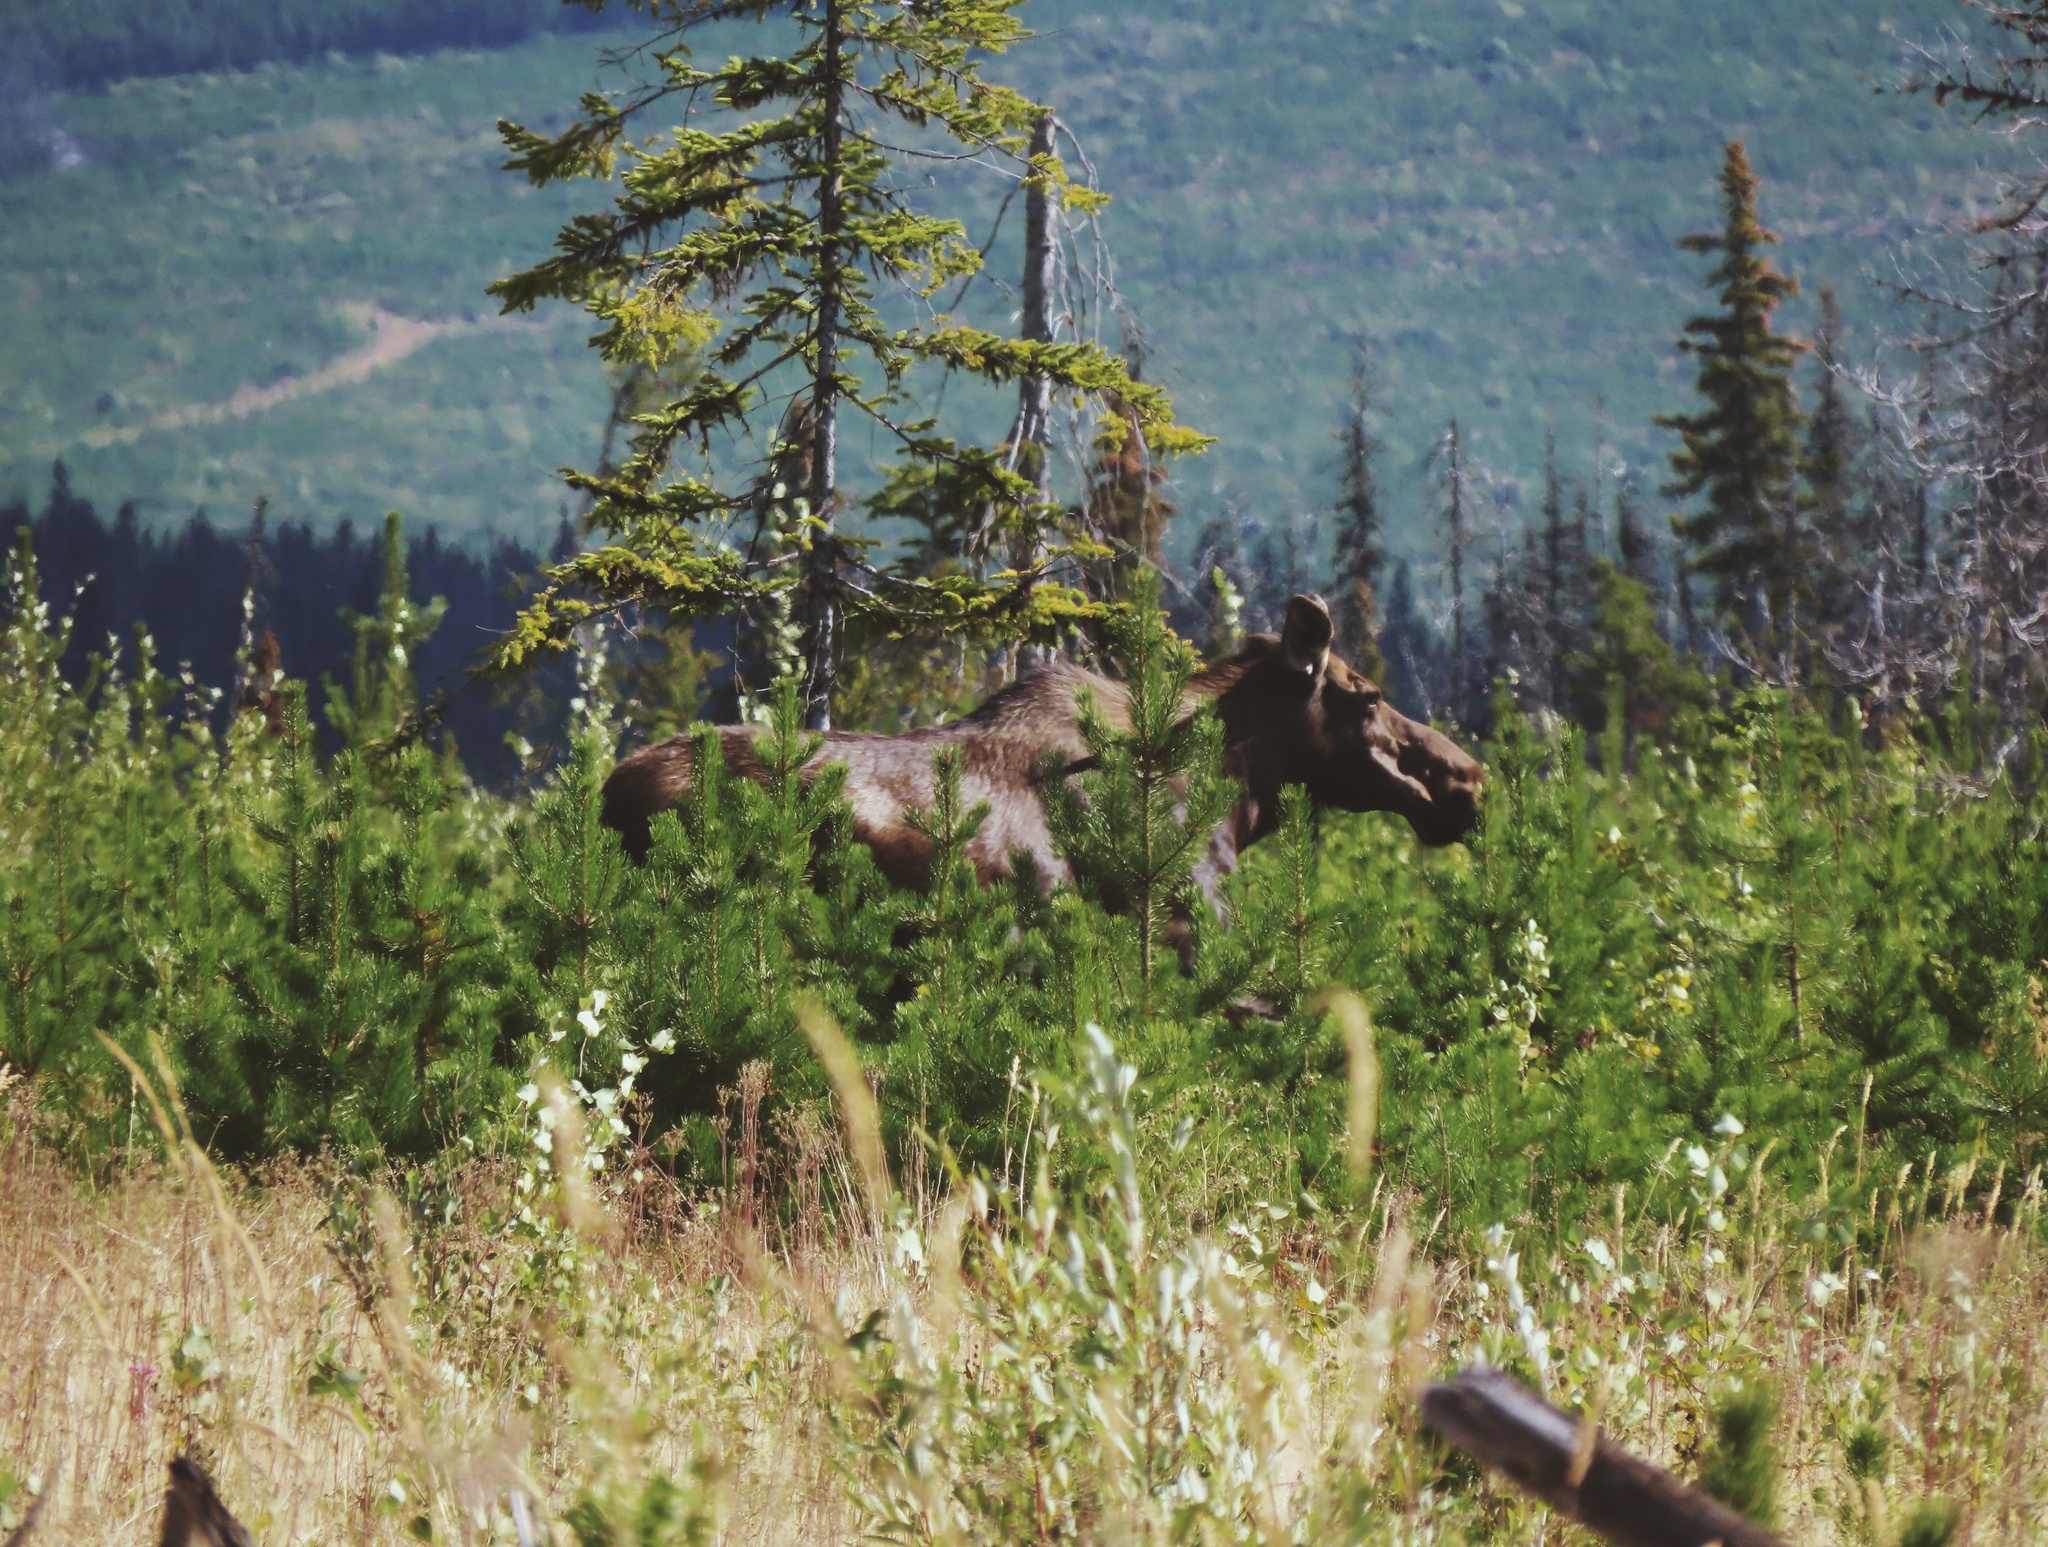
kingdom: Animalia
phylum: Chordata
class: Mammalia
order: Artiodactyla
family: Cervidae
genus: Alces
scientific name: Alces alces
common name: Moose
